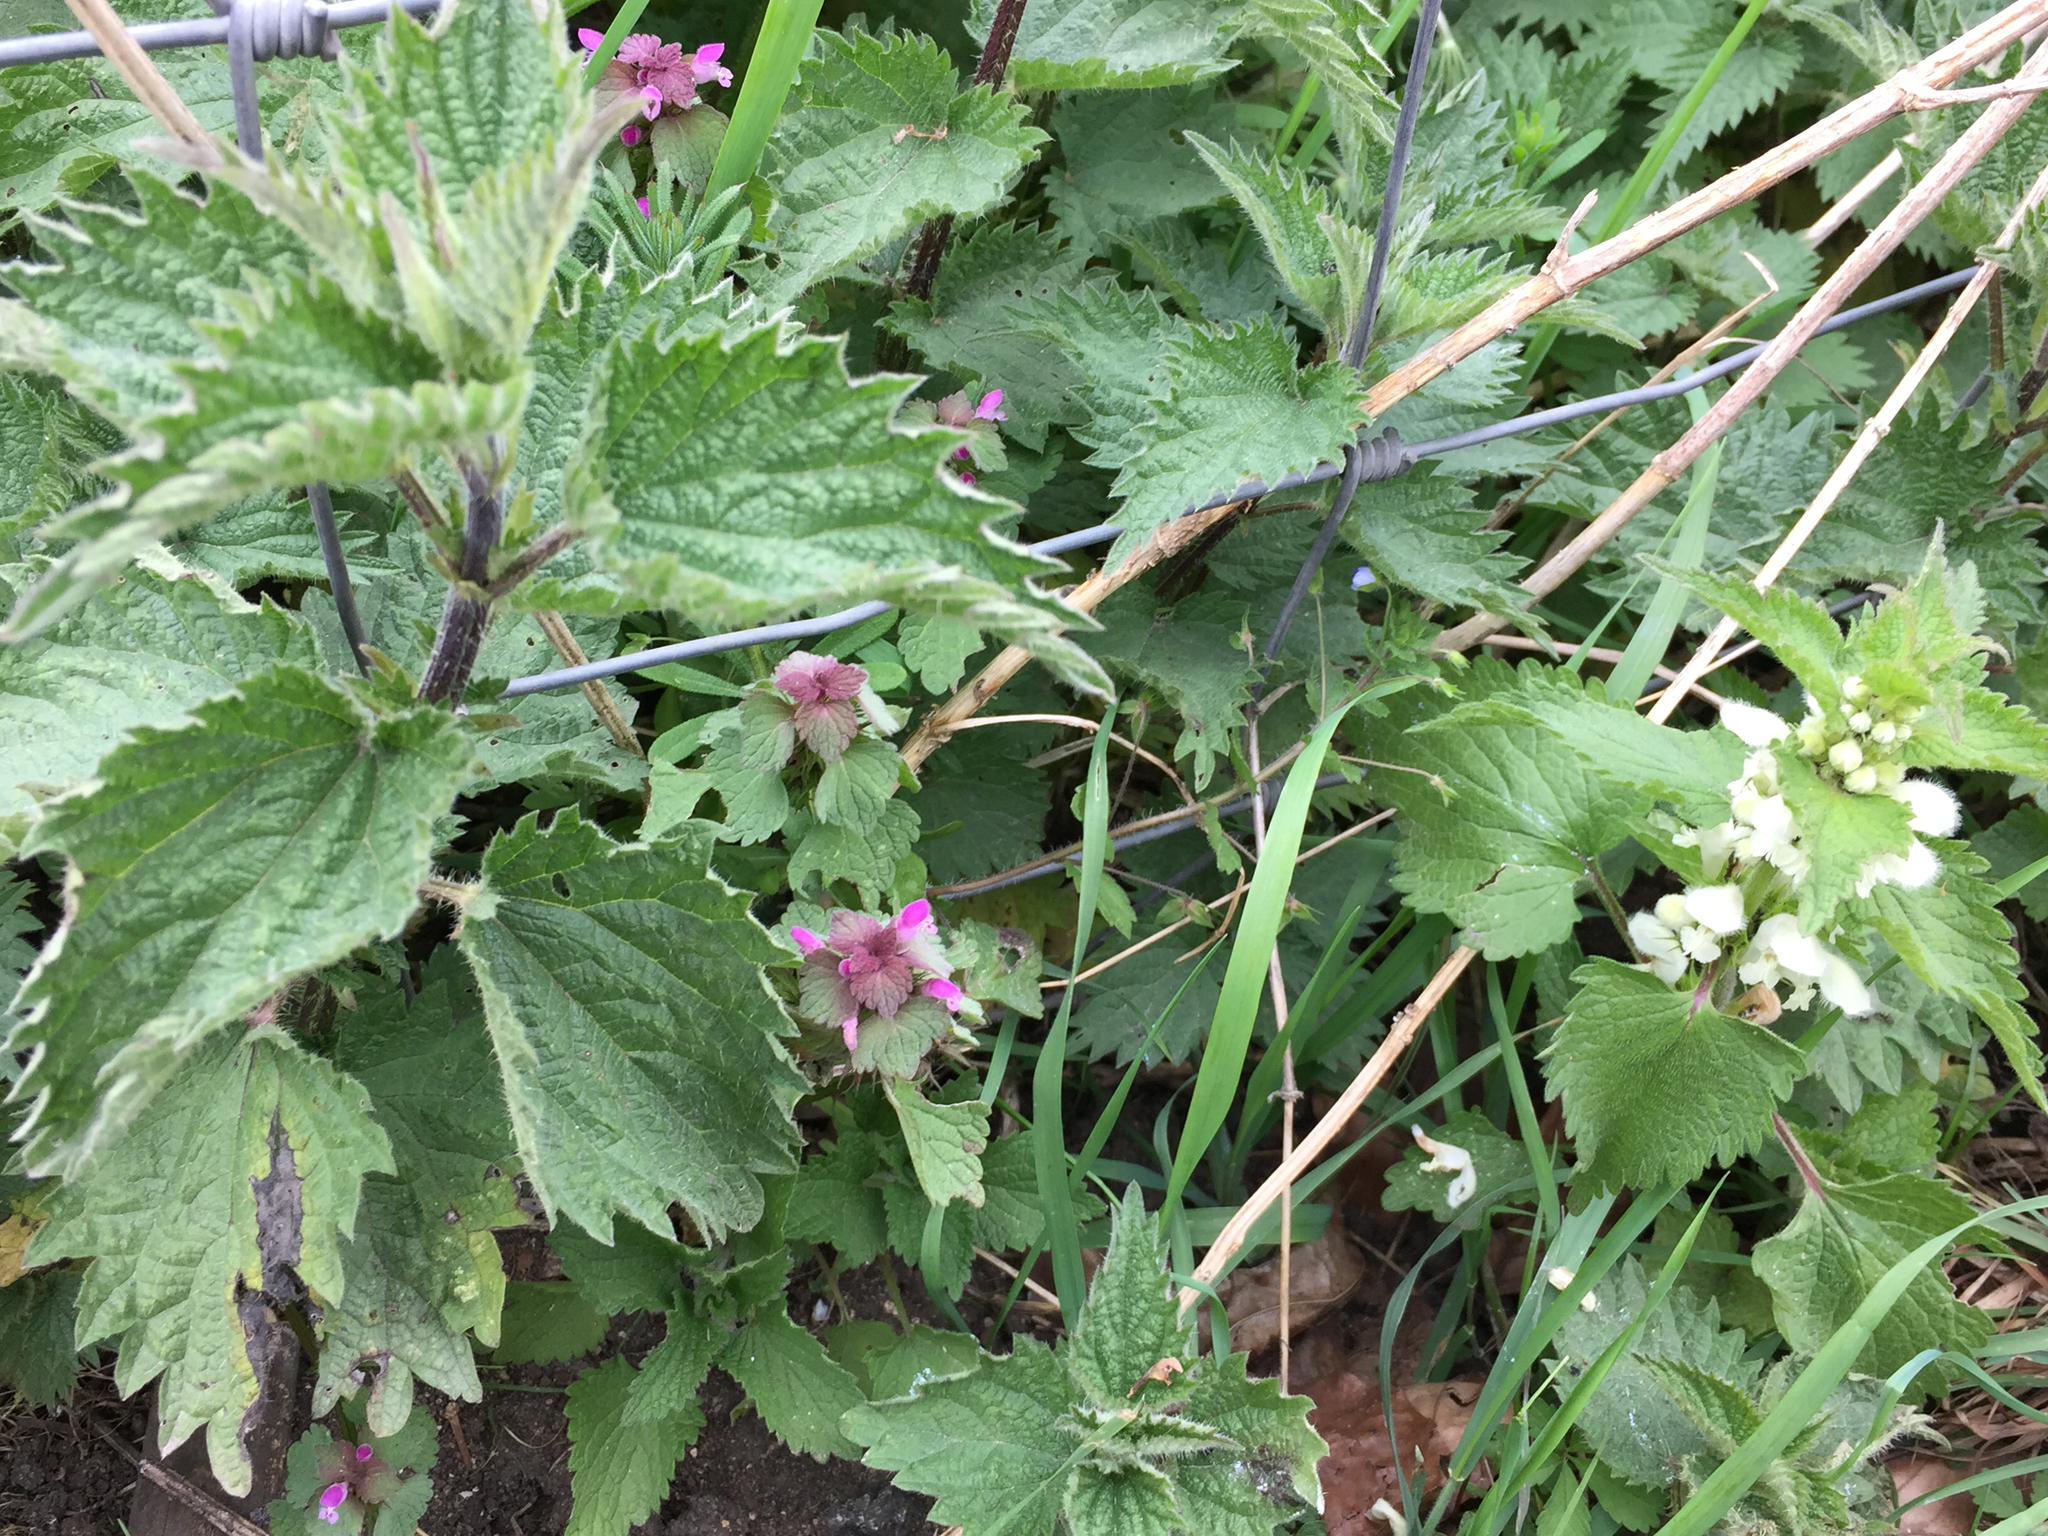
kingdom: Plantae
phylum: Tracheophyta
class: Magnoliopsida
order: Rosales
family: Urticaceae
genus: Urtica
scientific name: Urtica dioica
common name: Common nettle
